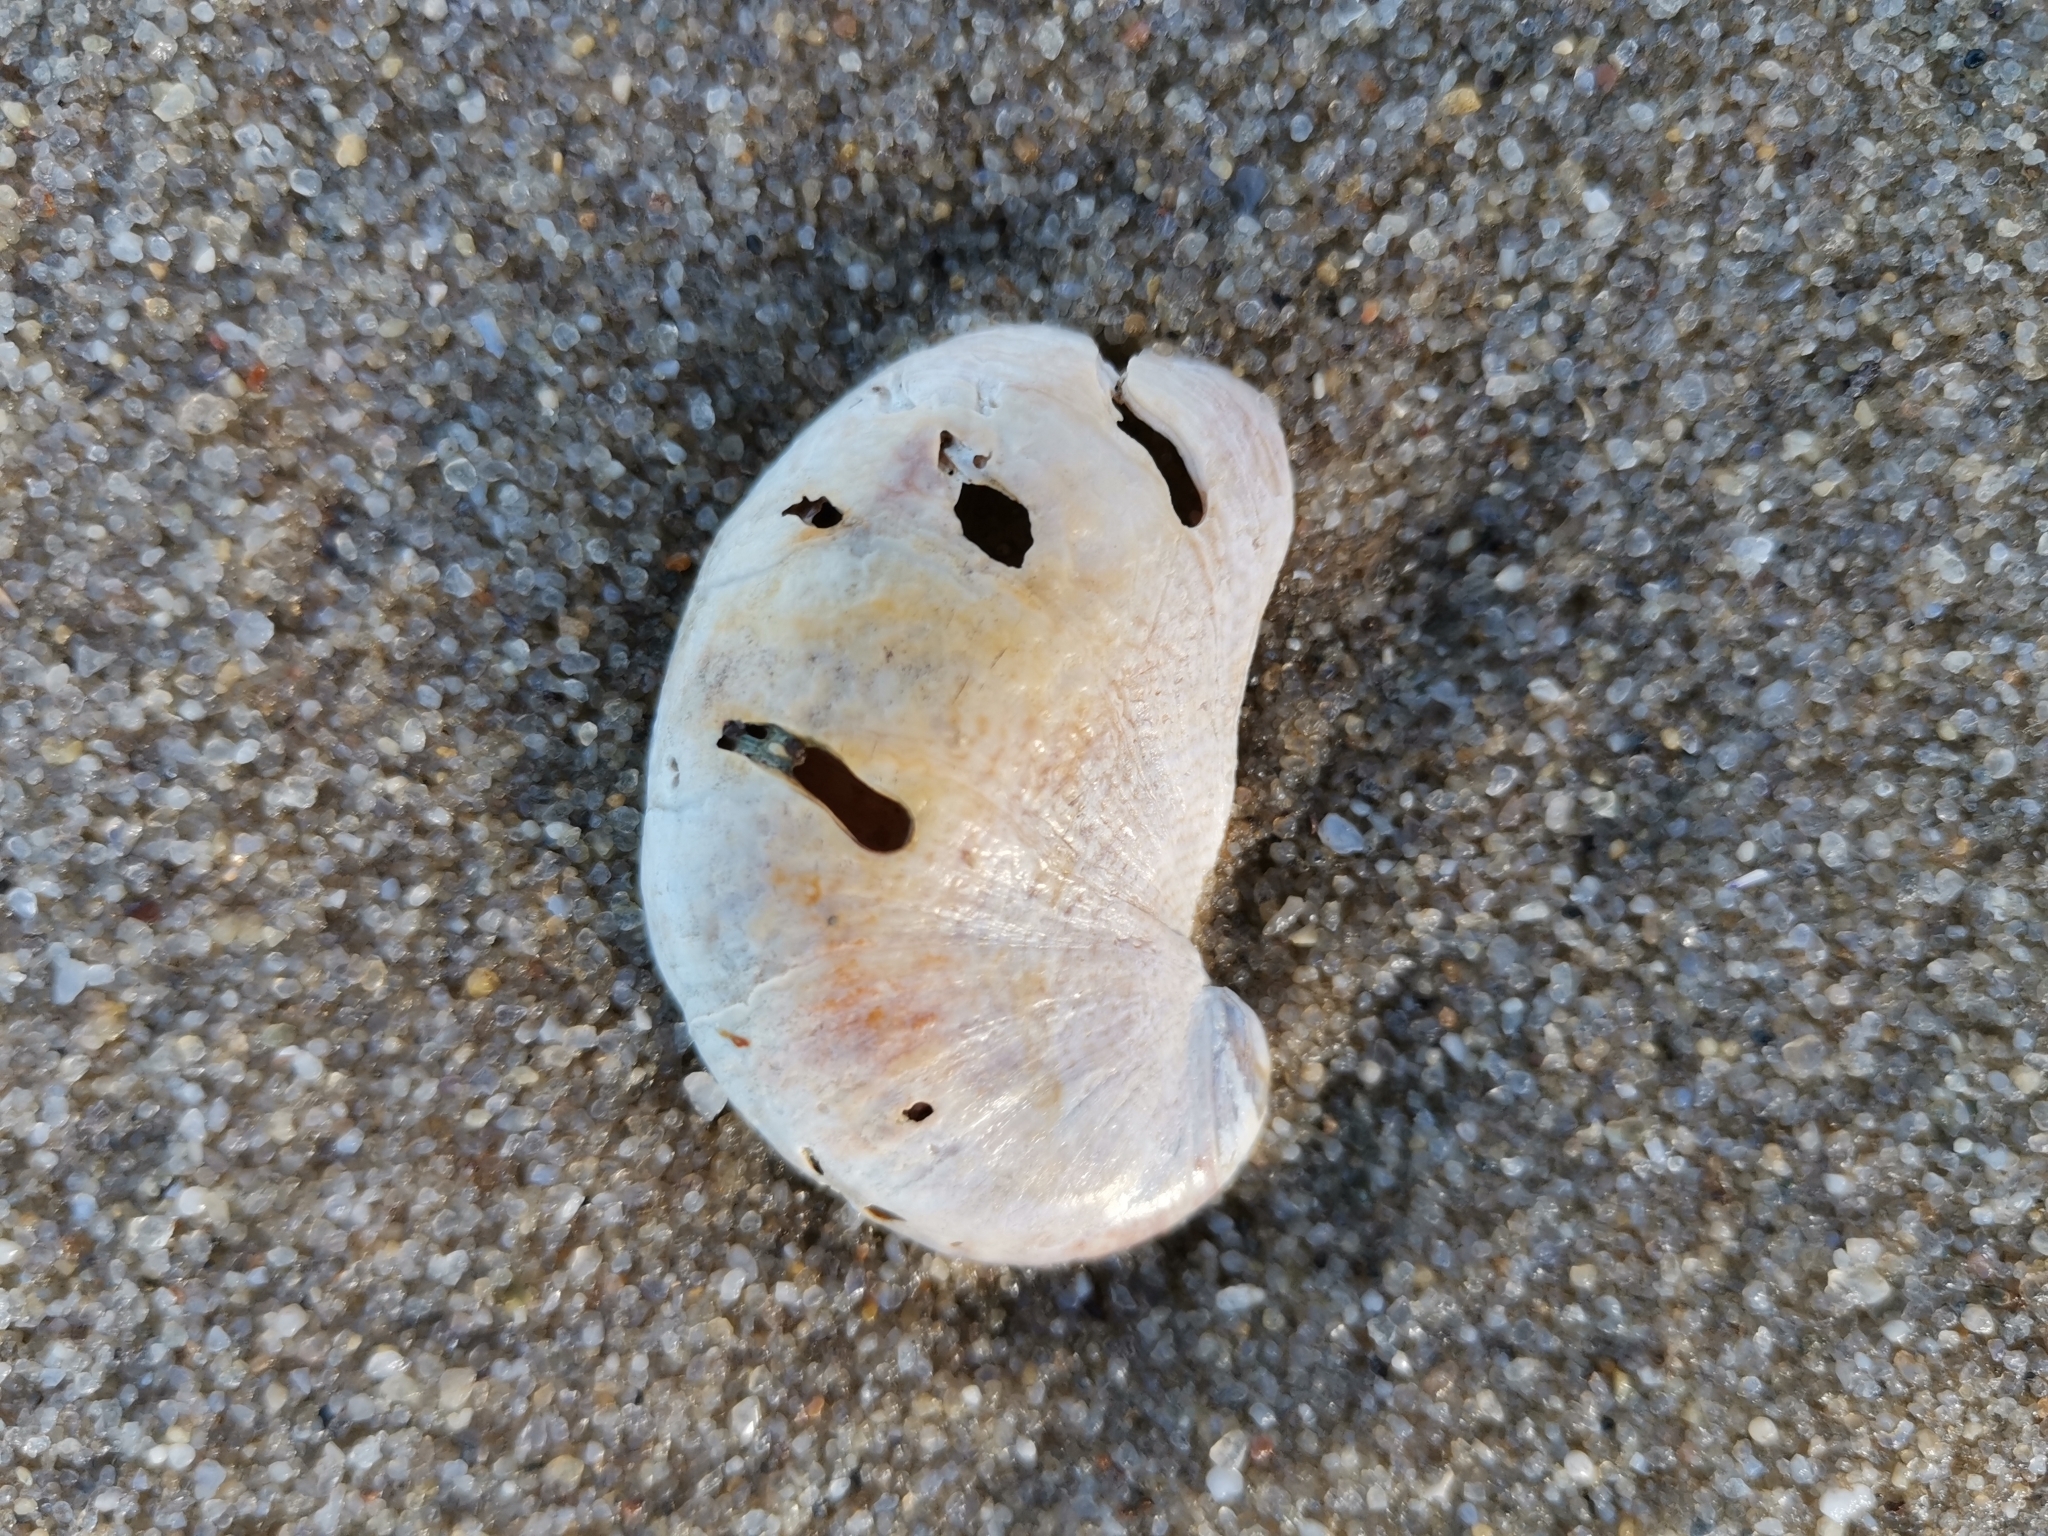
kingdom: Animalia
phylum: Mollusca
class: Gastropoda
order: Littorinimorpha
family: Calyptraeidae
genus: Crepidula
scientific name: Crepidula fornicata
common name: Slipper limpet
